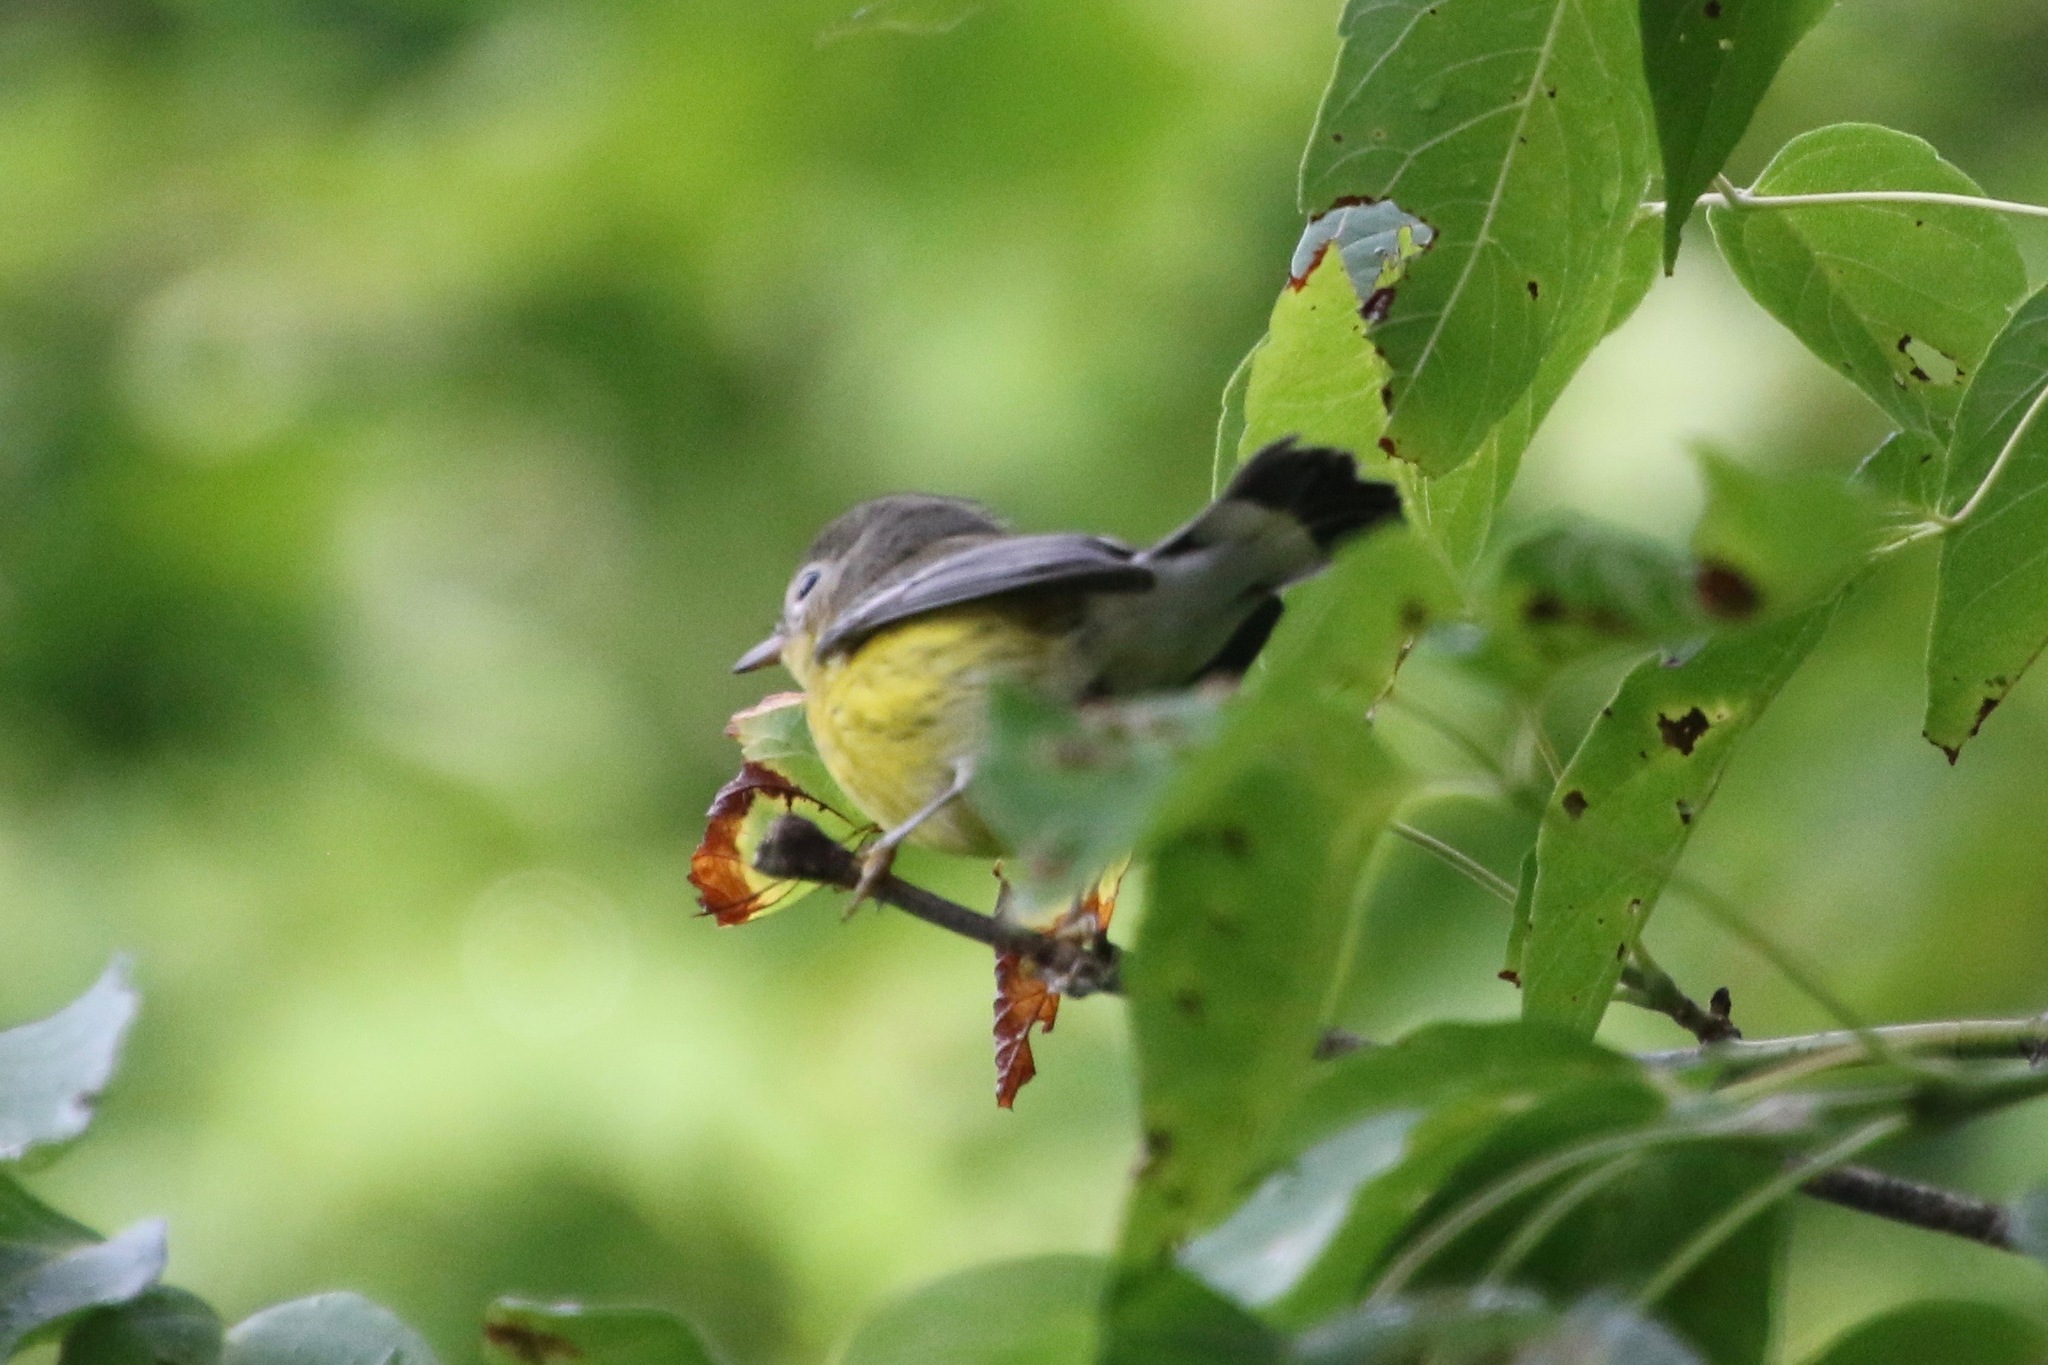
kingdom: Animalia
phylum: Chordata
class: Aves
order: Passeriformes
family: Parulidae
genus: Setophaga
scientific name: Setophaga magnolia
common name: Magnolia warbler
